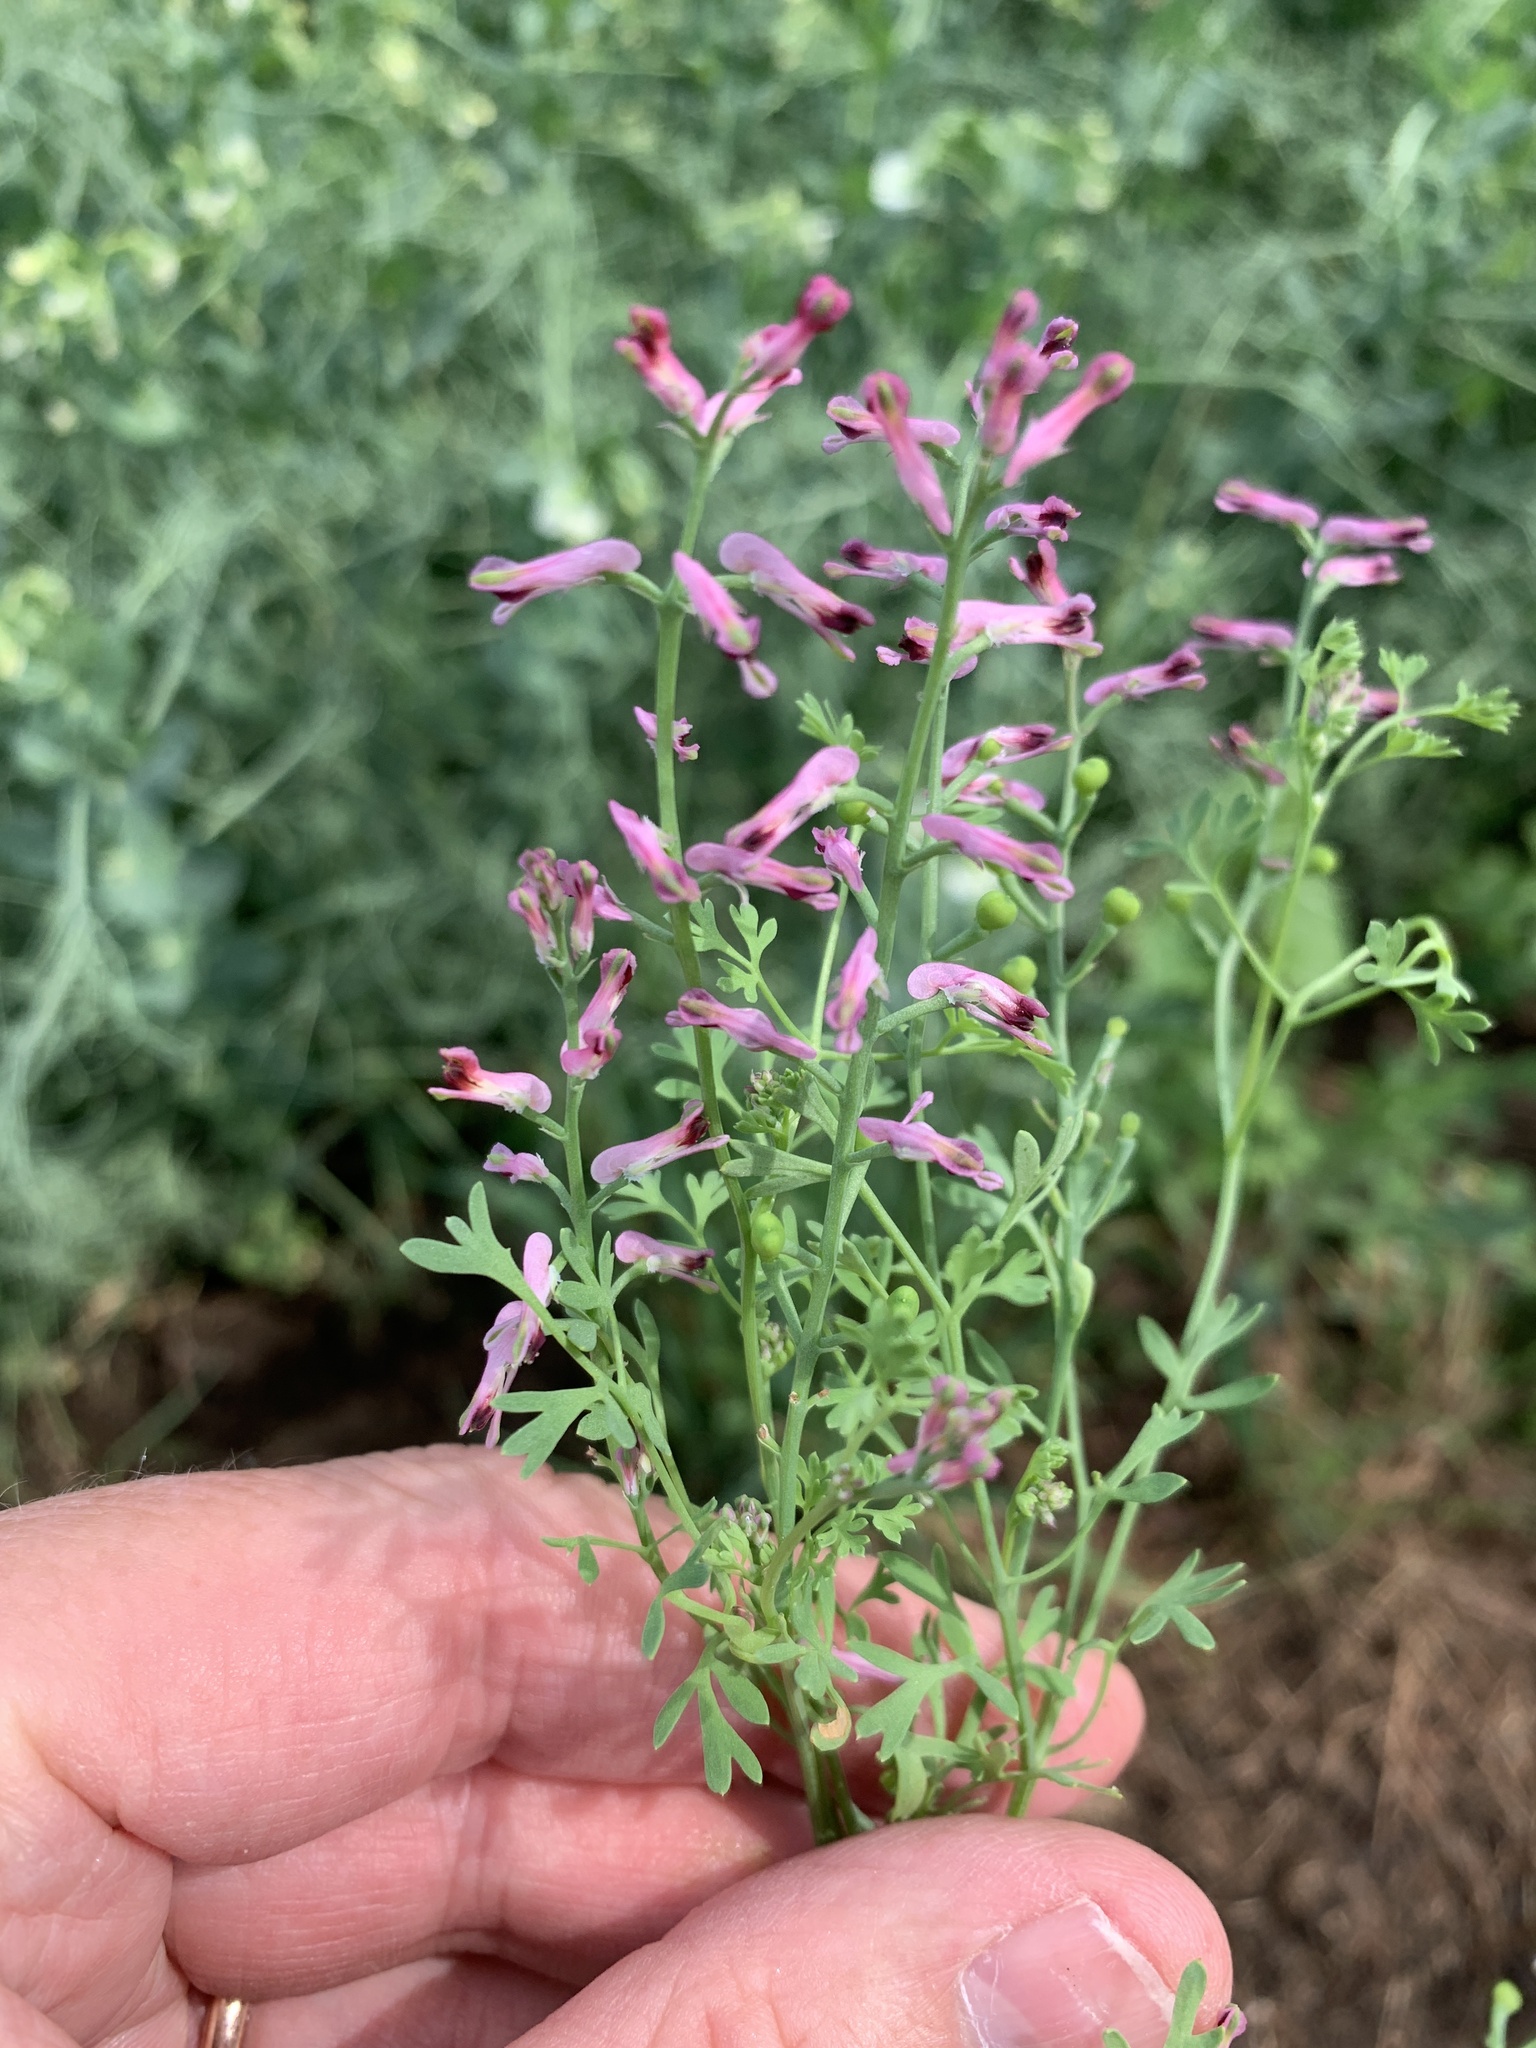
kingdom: Plantae
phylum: Tracheophyta
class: Magnoliopsida
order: Ranunculales
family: Papaveraceae
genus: Fumaria
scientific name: Fumaria officinalis
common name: Common fumitory
